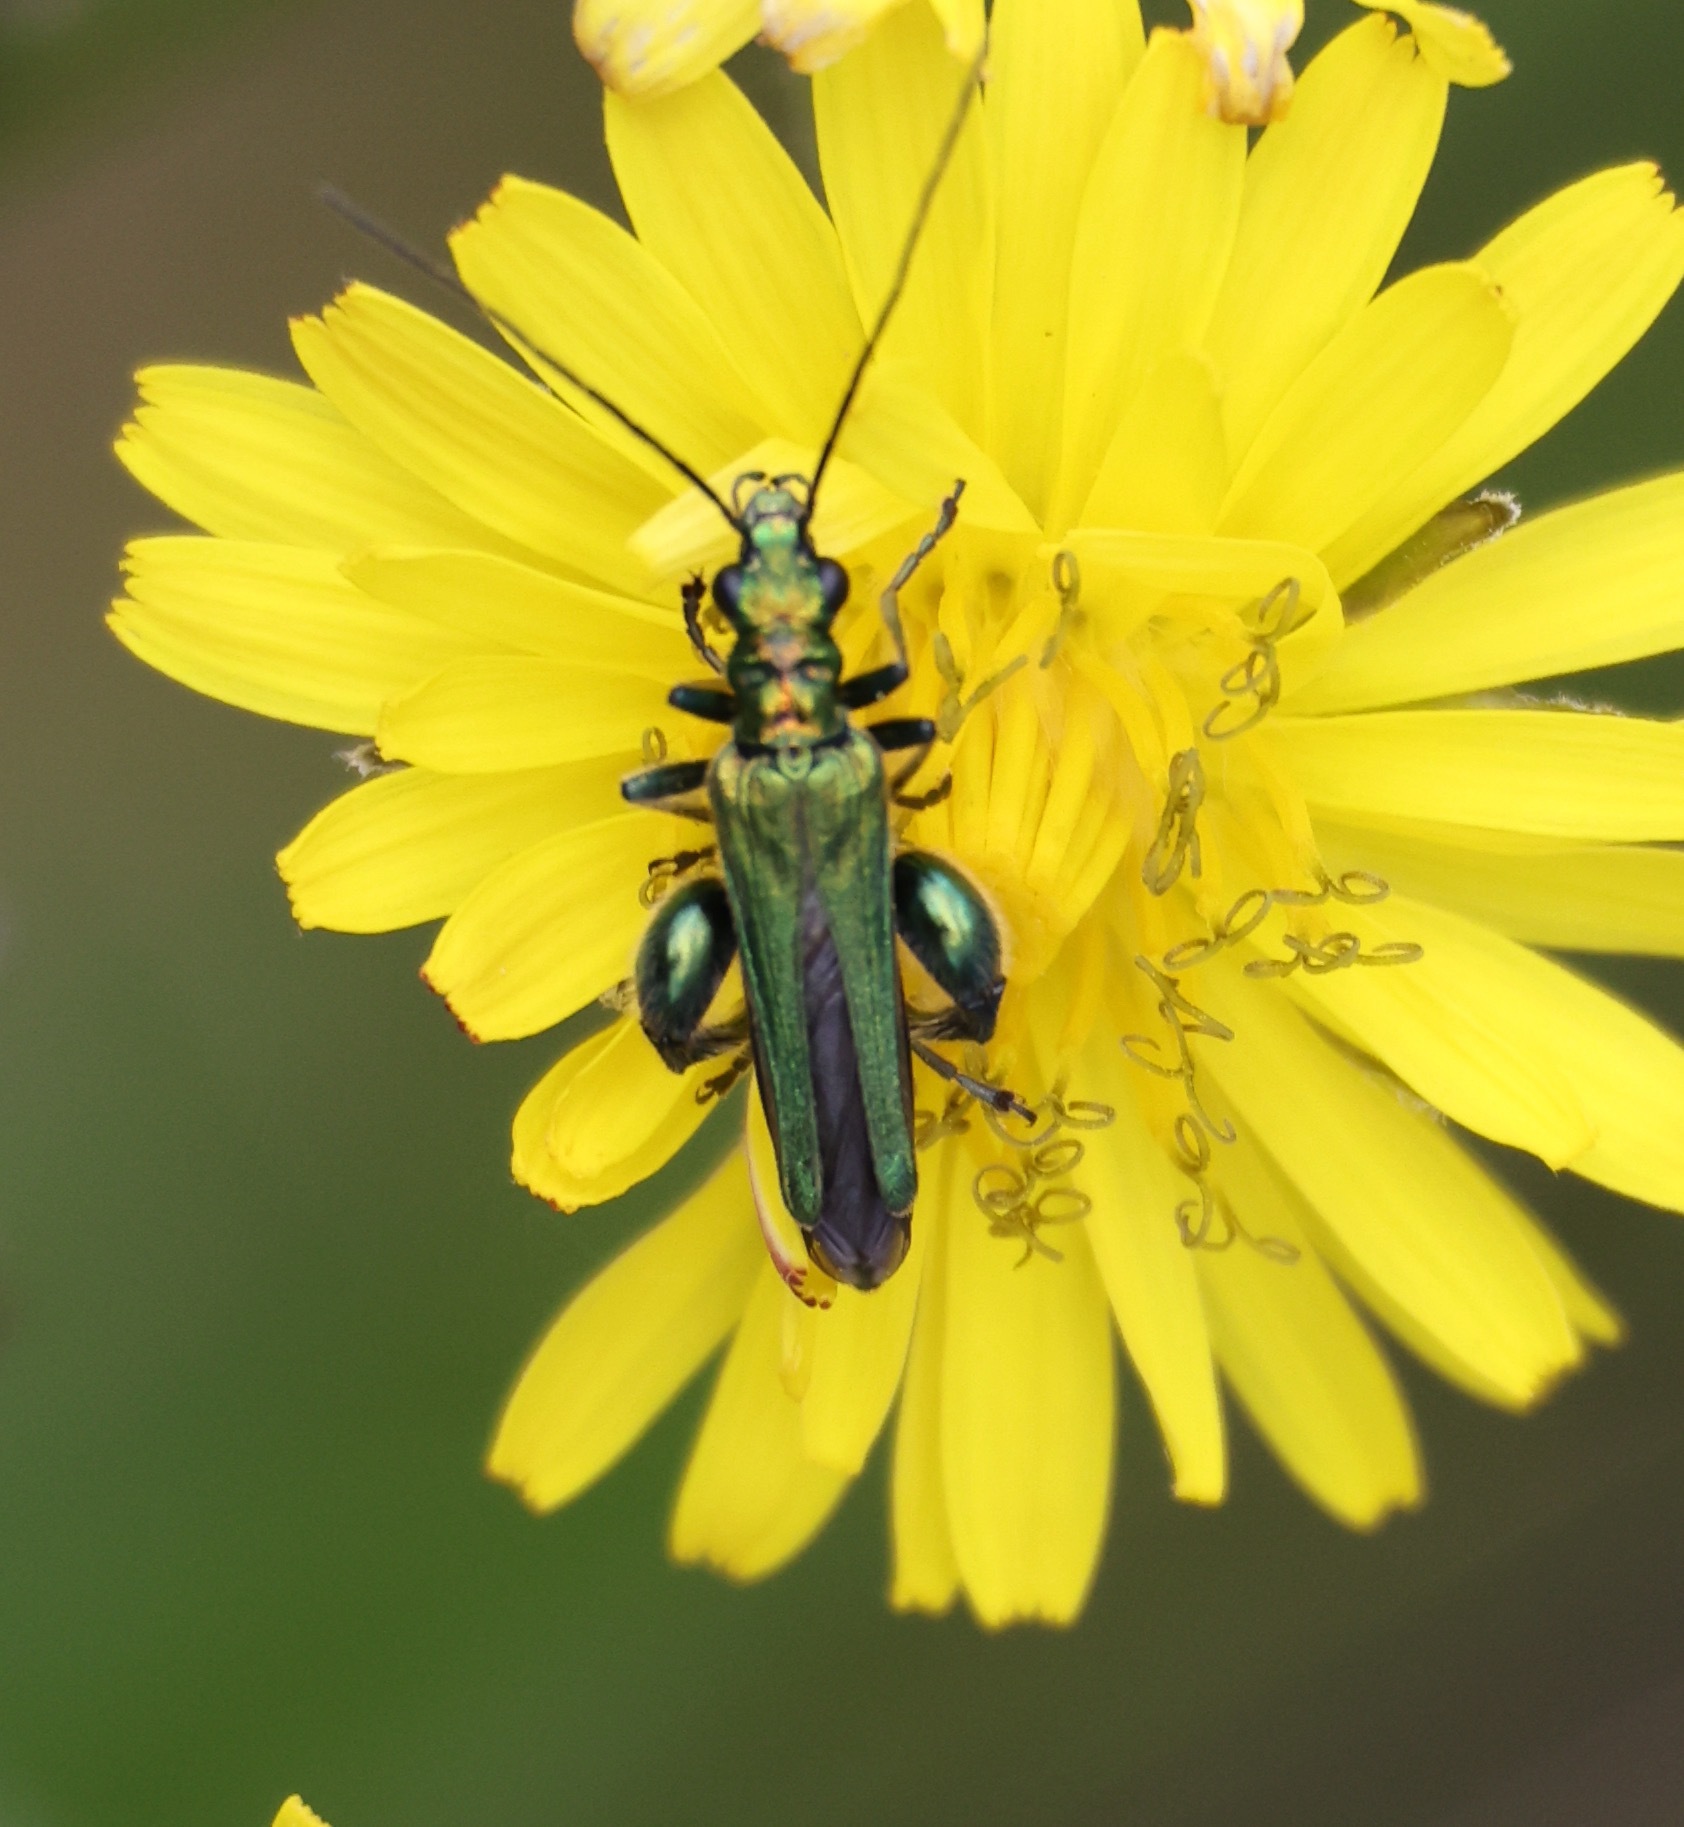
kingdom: Animalia
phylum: Arthropoda
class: Insecta
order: Coleoptera
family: Oedemeridae
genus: Oedemera
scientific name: Oedemera nobilis
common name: Swollen-thighed beetle
